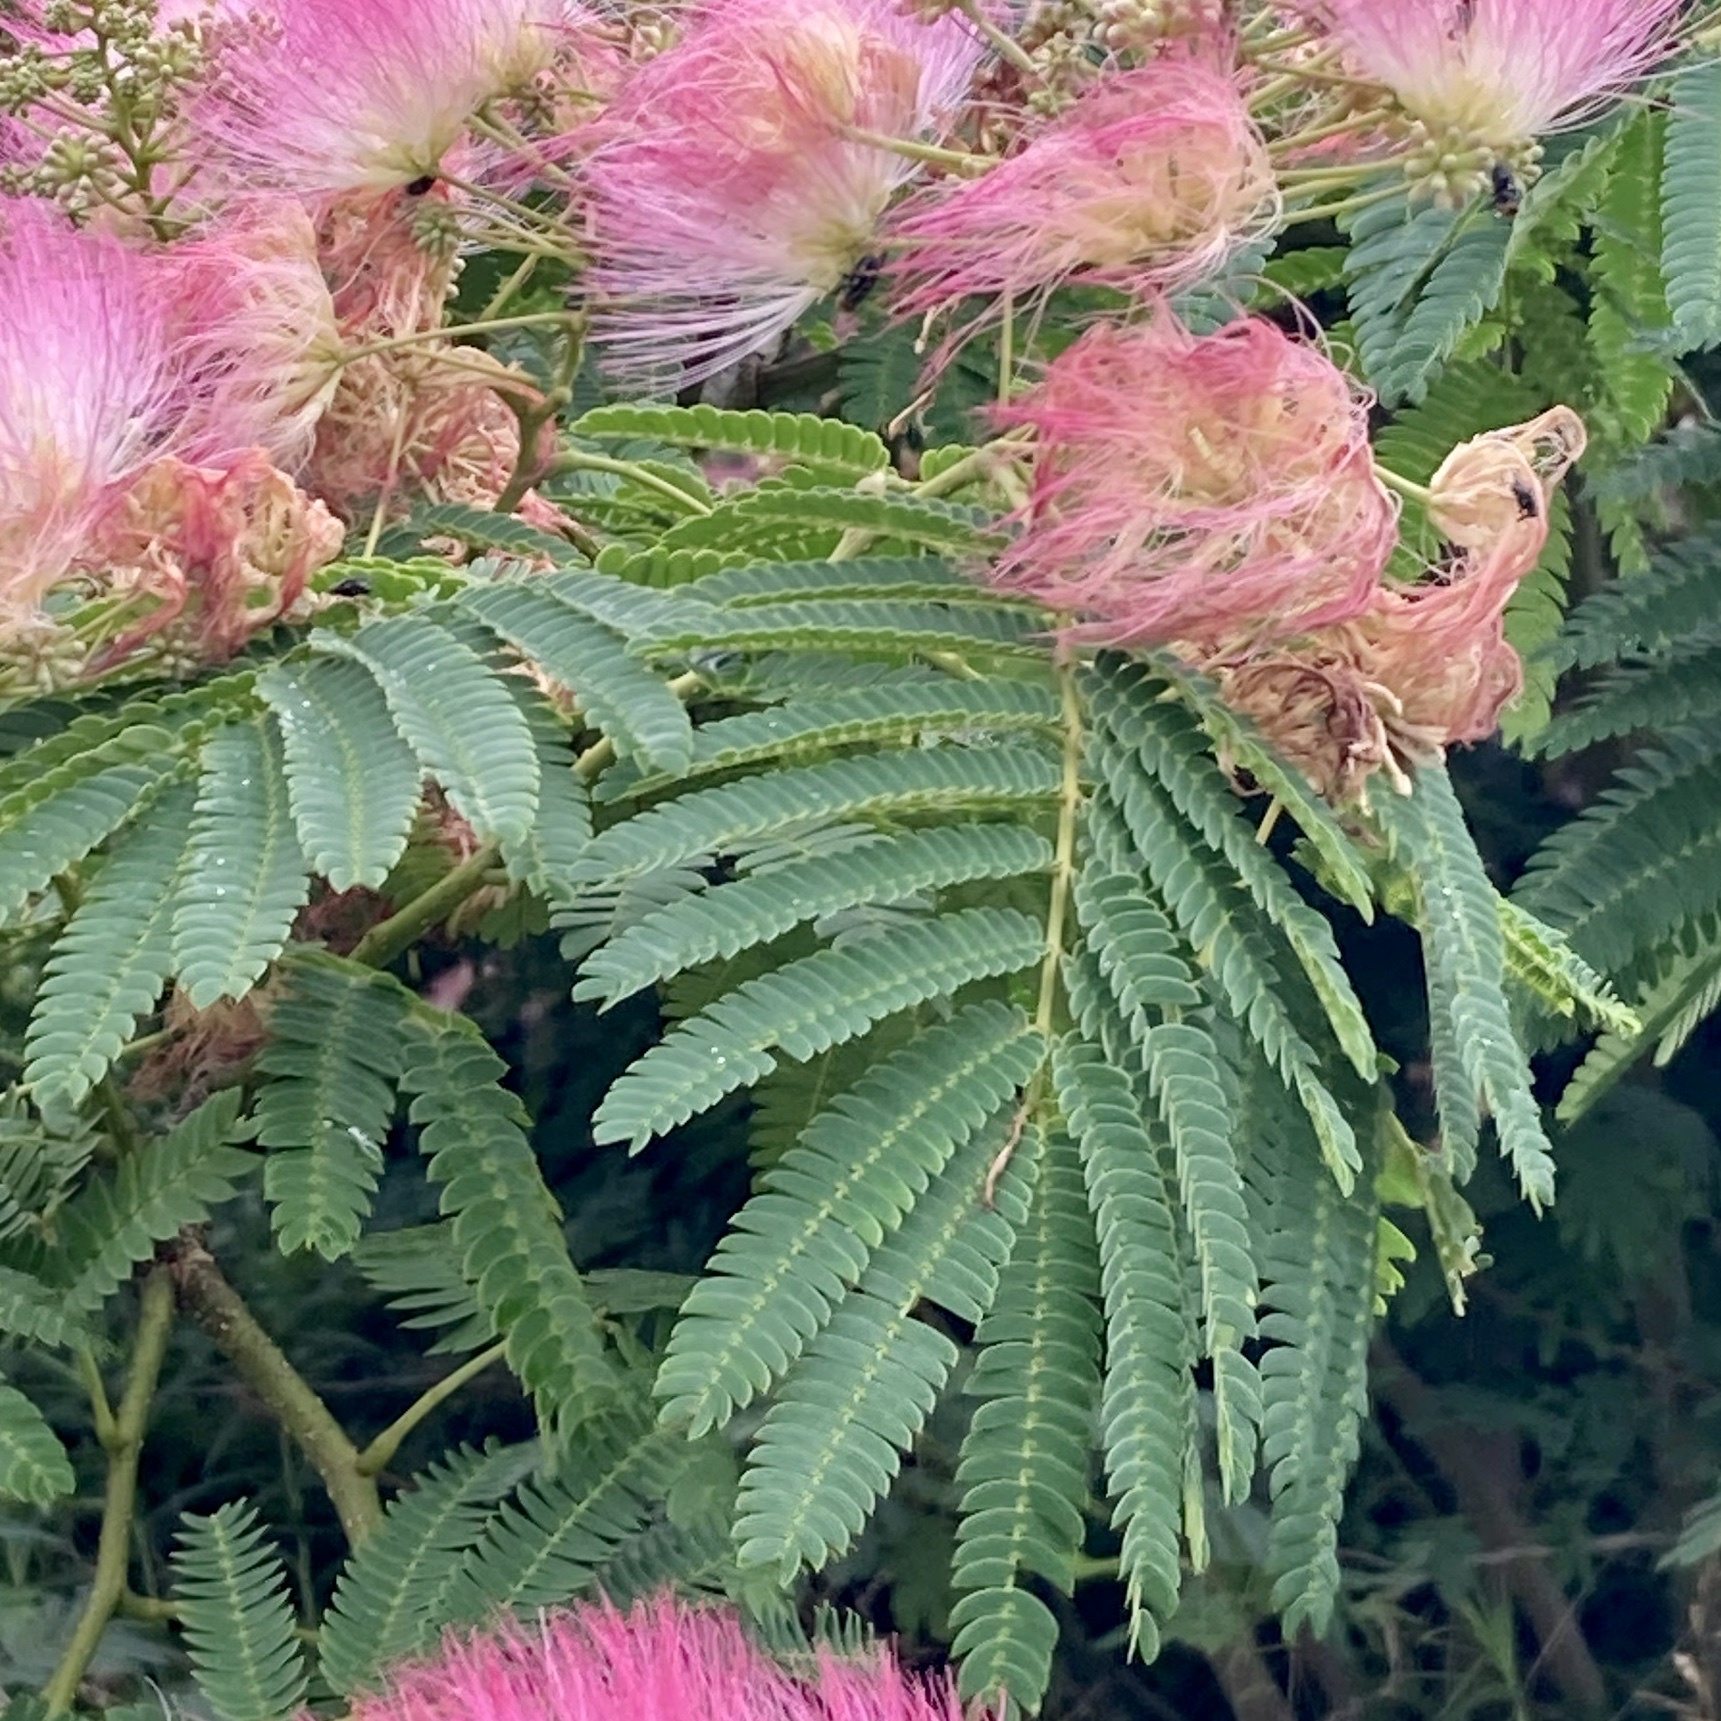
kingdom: Plantae
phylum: Tracheophyta
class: Magnoliopsida
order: Fabales
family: Fabaceae
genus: Albizia
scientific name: Albizia julibrissin
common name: Silktree
